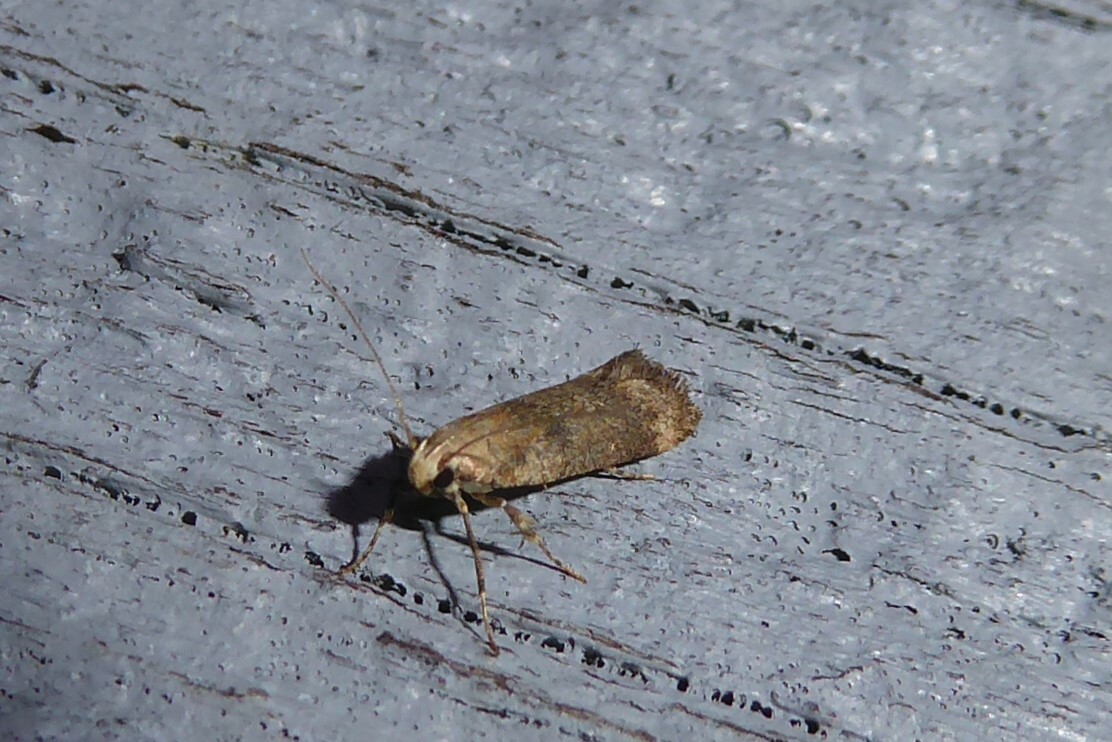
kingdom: Animalia
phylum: Arthropoda
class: Insecta
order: Lepidoptera
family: Gelechiidae
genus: Anisoplaca
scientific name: Anisoplaca acrodactyla
